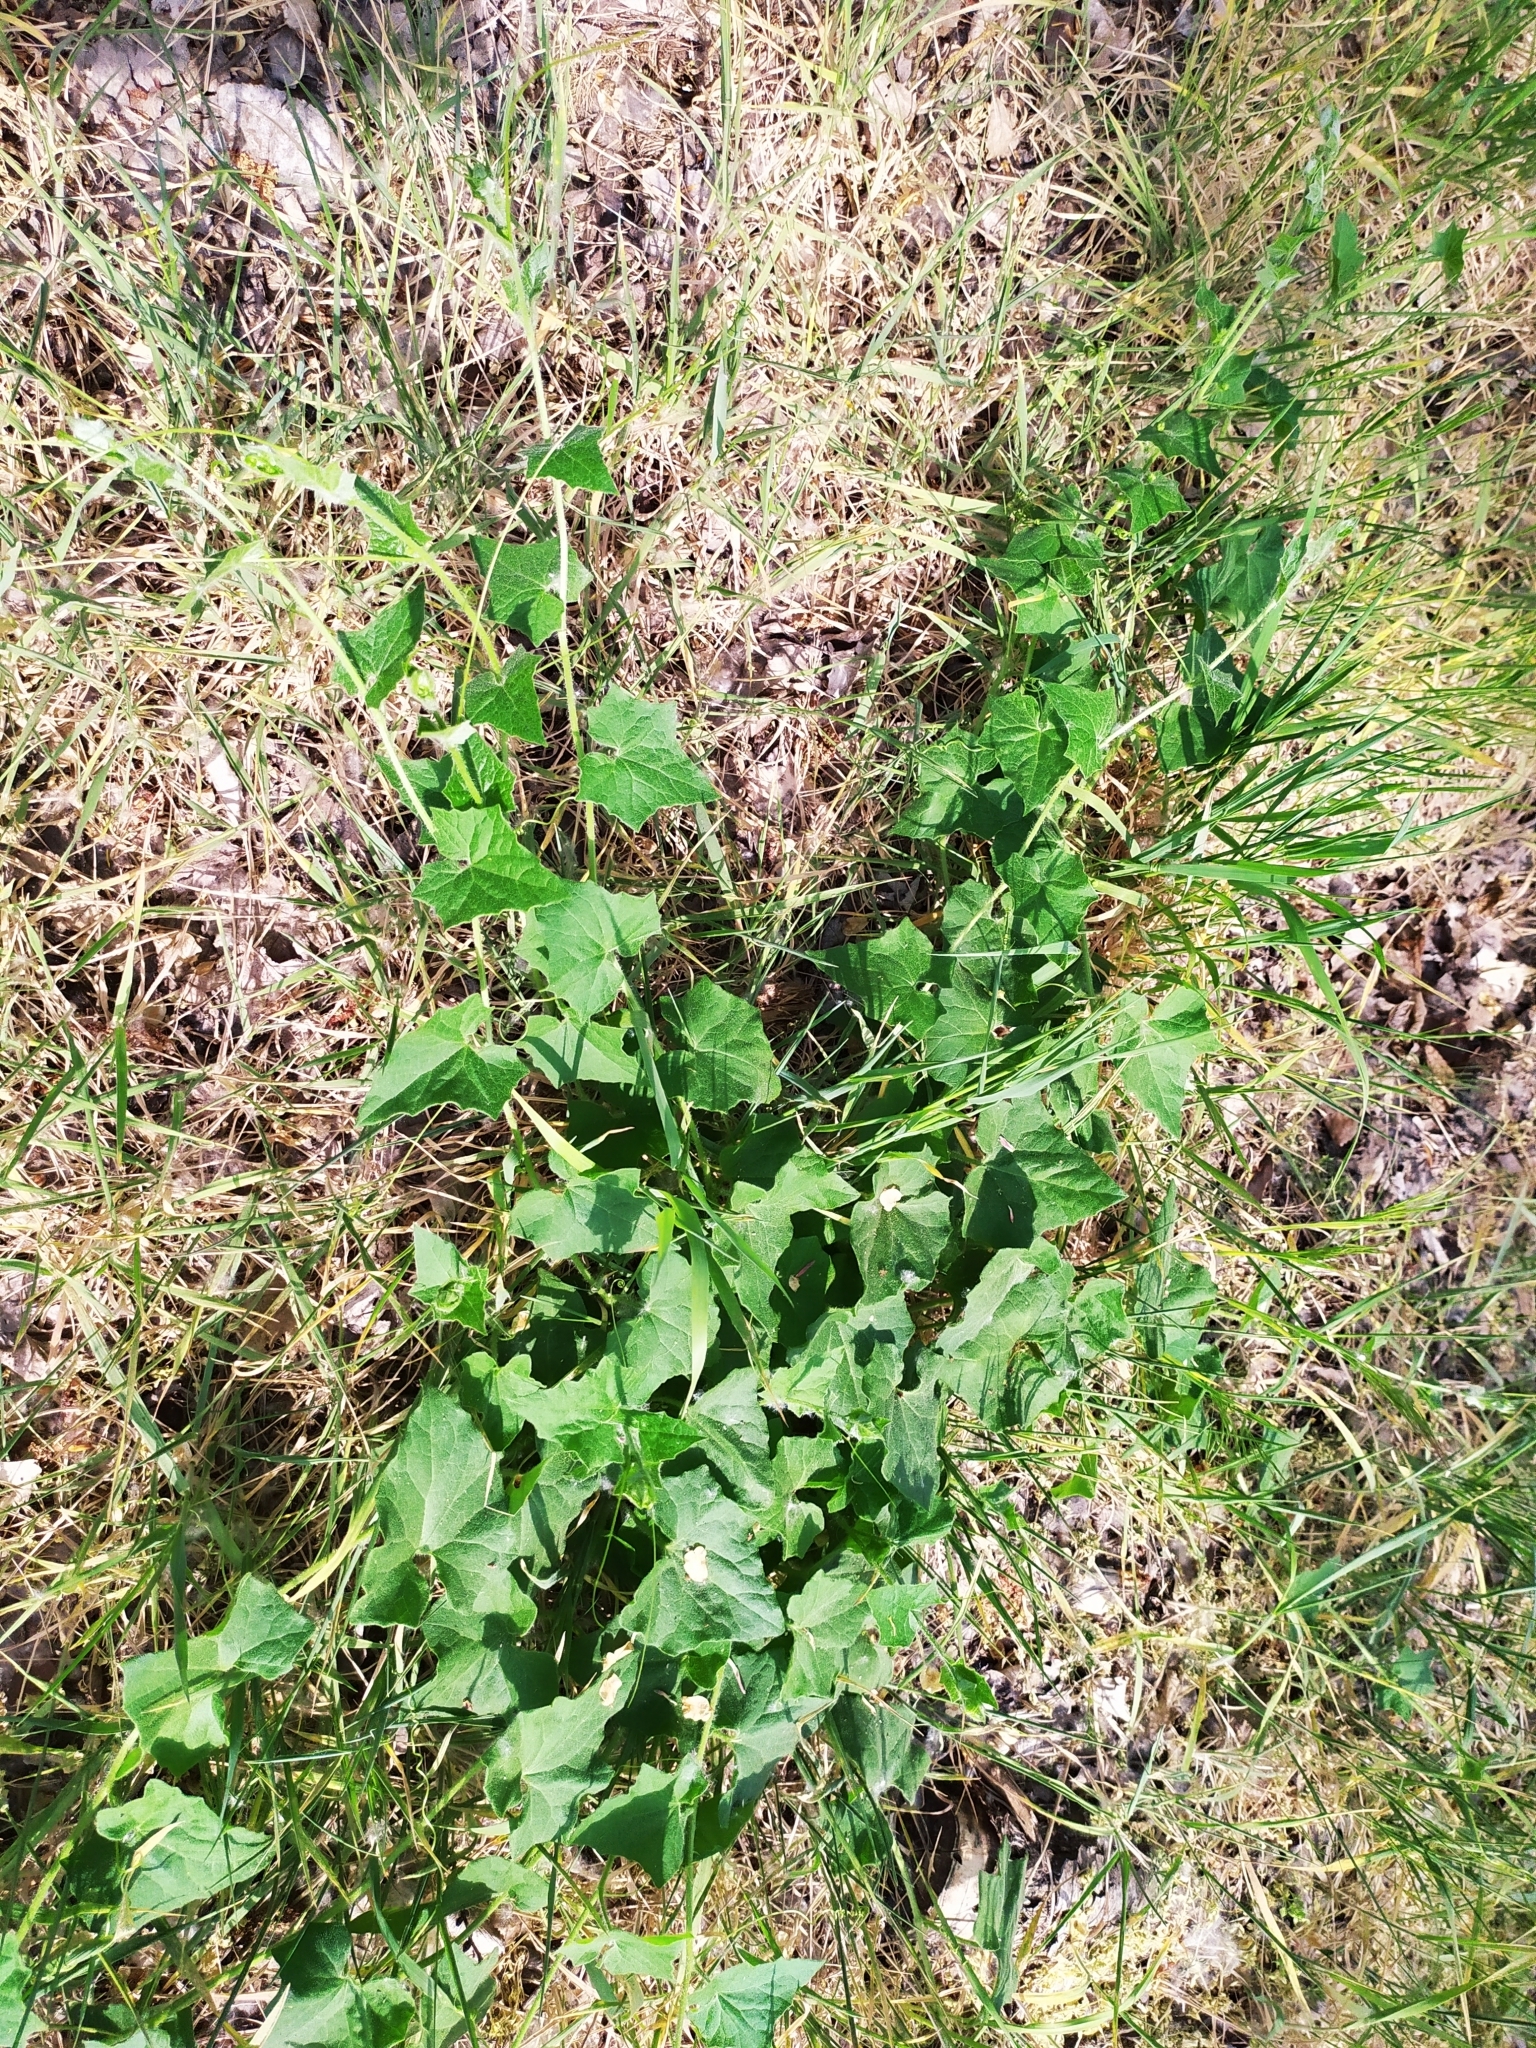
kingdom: Plantae
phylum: Tracheophyta
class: Magnoliopsida
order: Cucurbitales
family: Cucurbitaceae
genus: Bryonia
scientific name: Bryonia dioica
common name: White bryony
